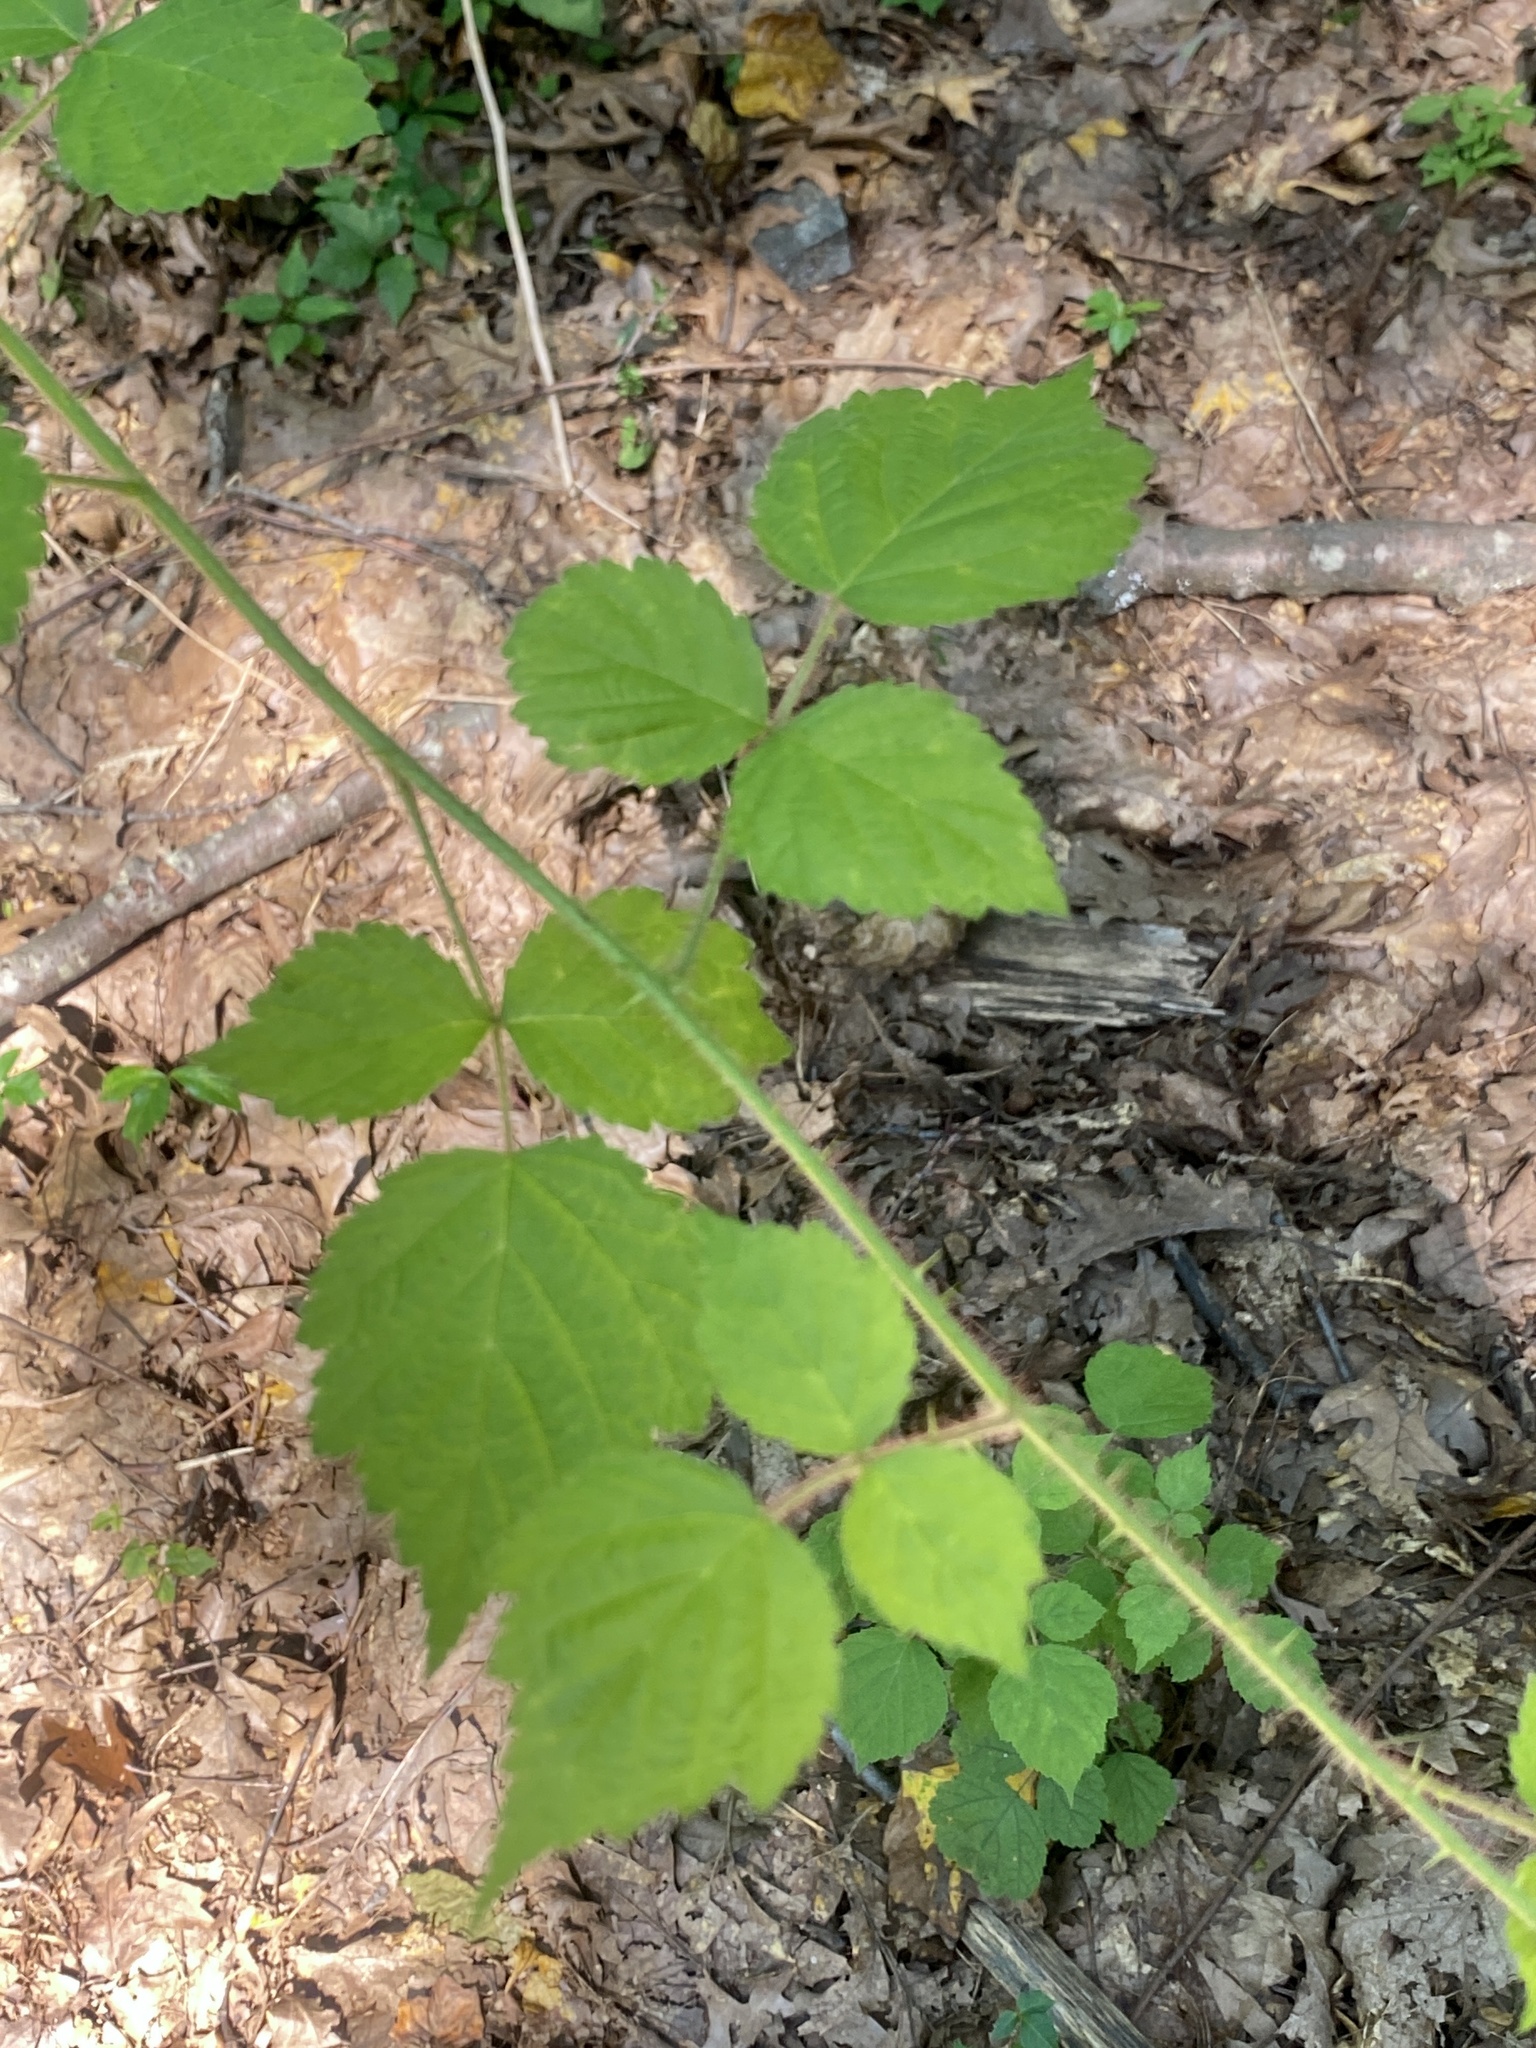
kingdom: Plantae
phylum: Tracheophyta
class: Magnoliopsida
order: Rosales
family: Rosaceae
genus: Rubus
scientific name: Rubus phoenicolasius
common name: Japanese wineberry
